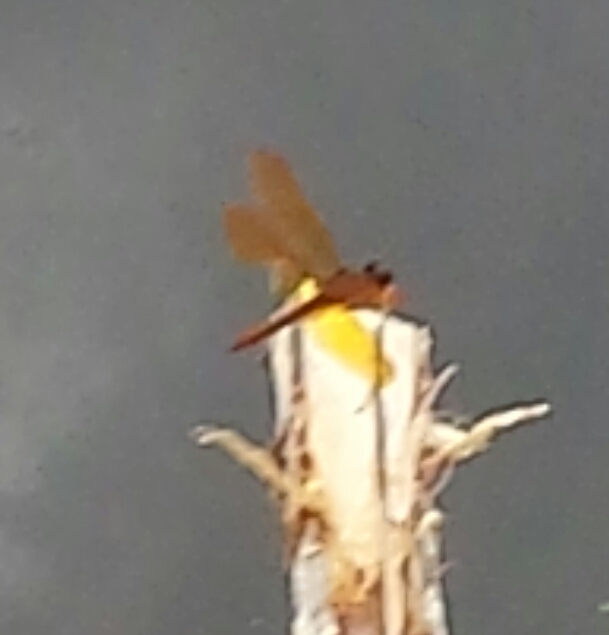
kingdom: Animalia
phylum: Arthropoda
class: Insecta
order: Odonata
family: Libellulidae
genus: Perithemis
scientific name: Perithemis domitia
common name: Slough amberwing
